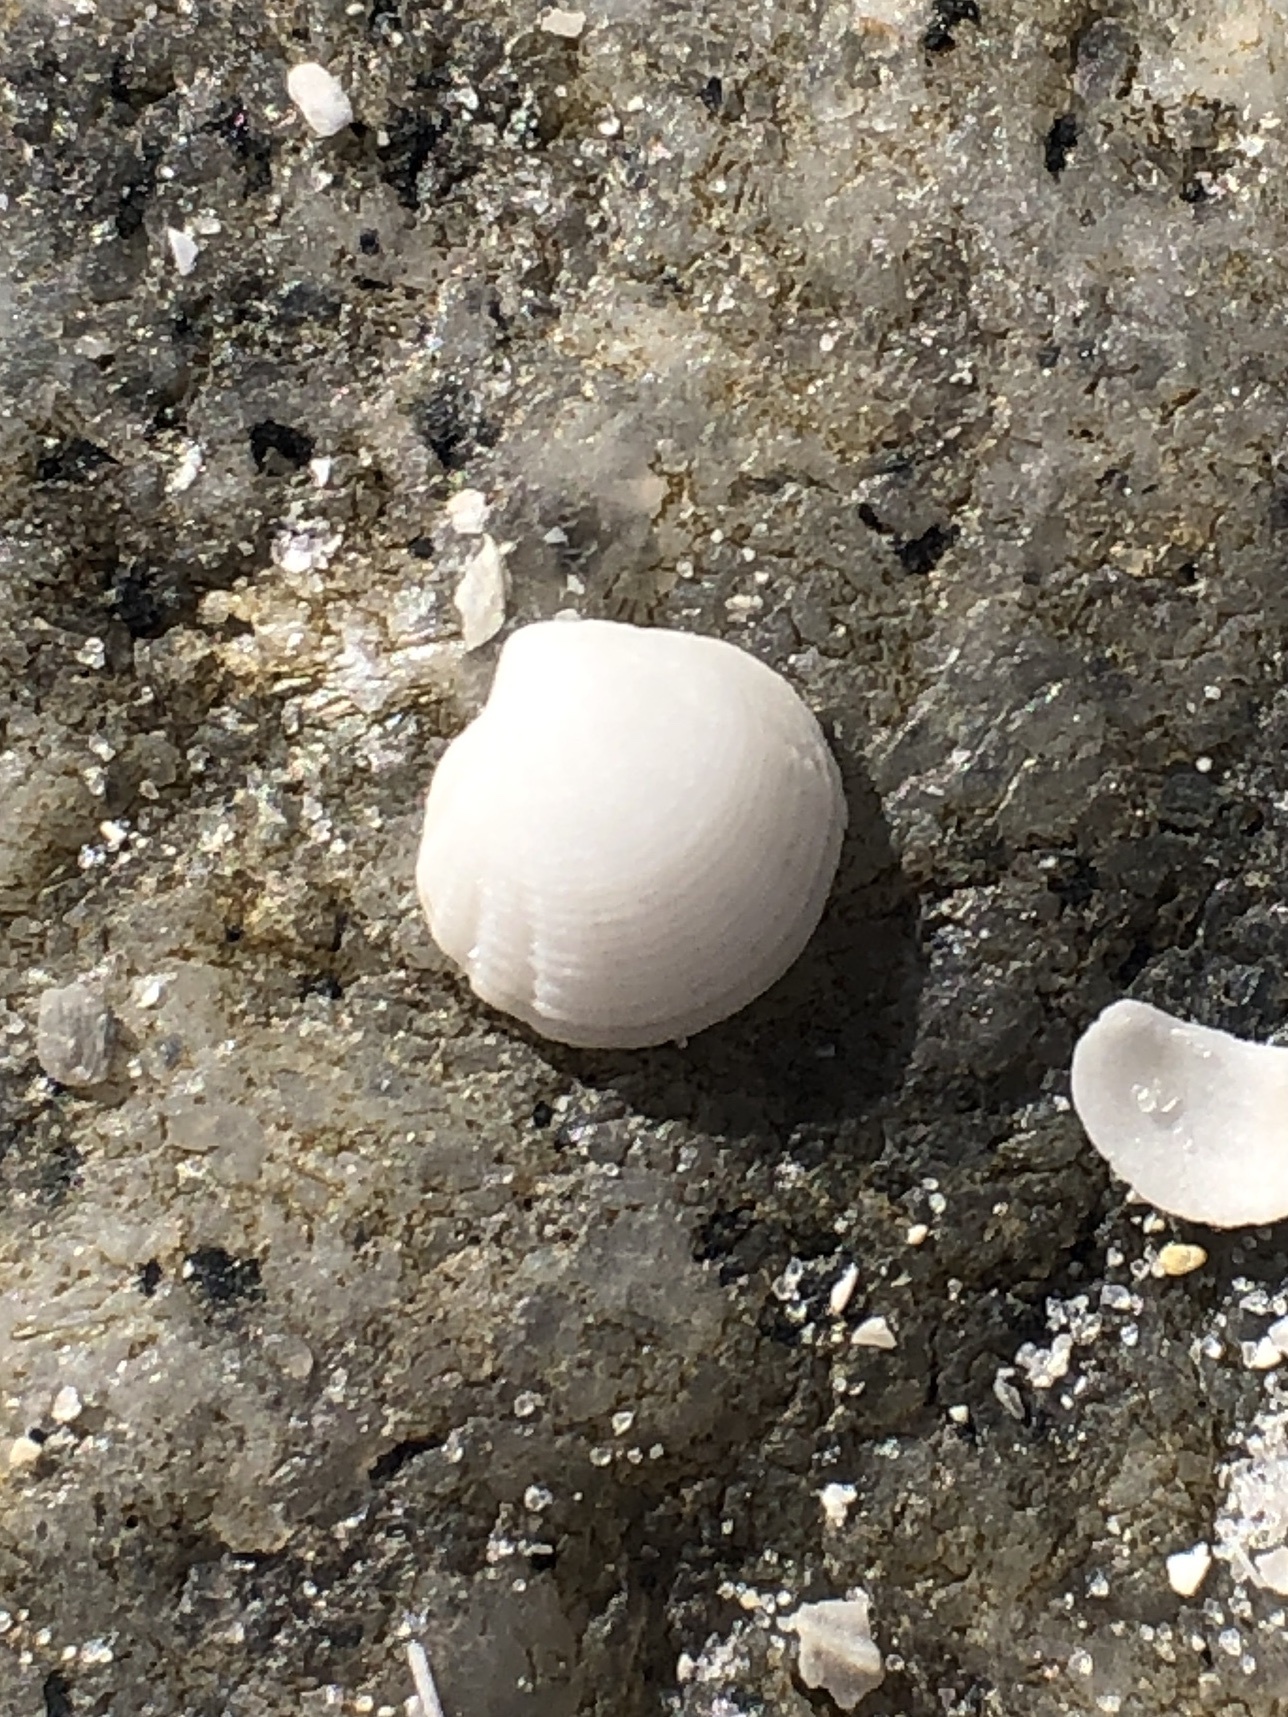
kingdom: Animalia
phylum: Mollusca
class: Bivalvia
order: Lucinida
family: Lucinidae
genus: Radiolucina
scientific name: Radiolucina amianta
